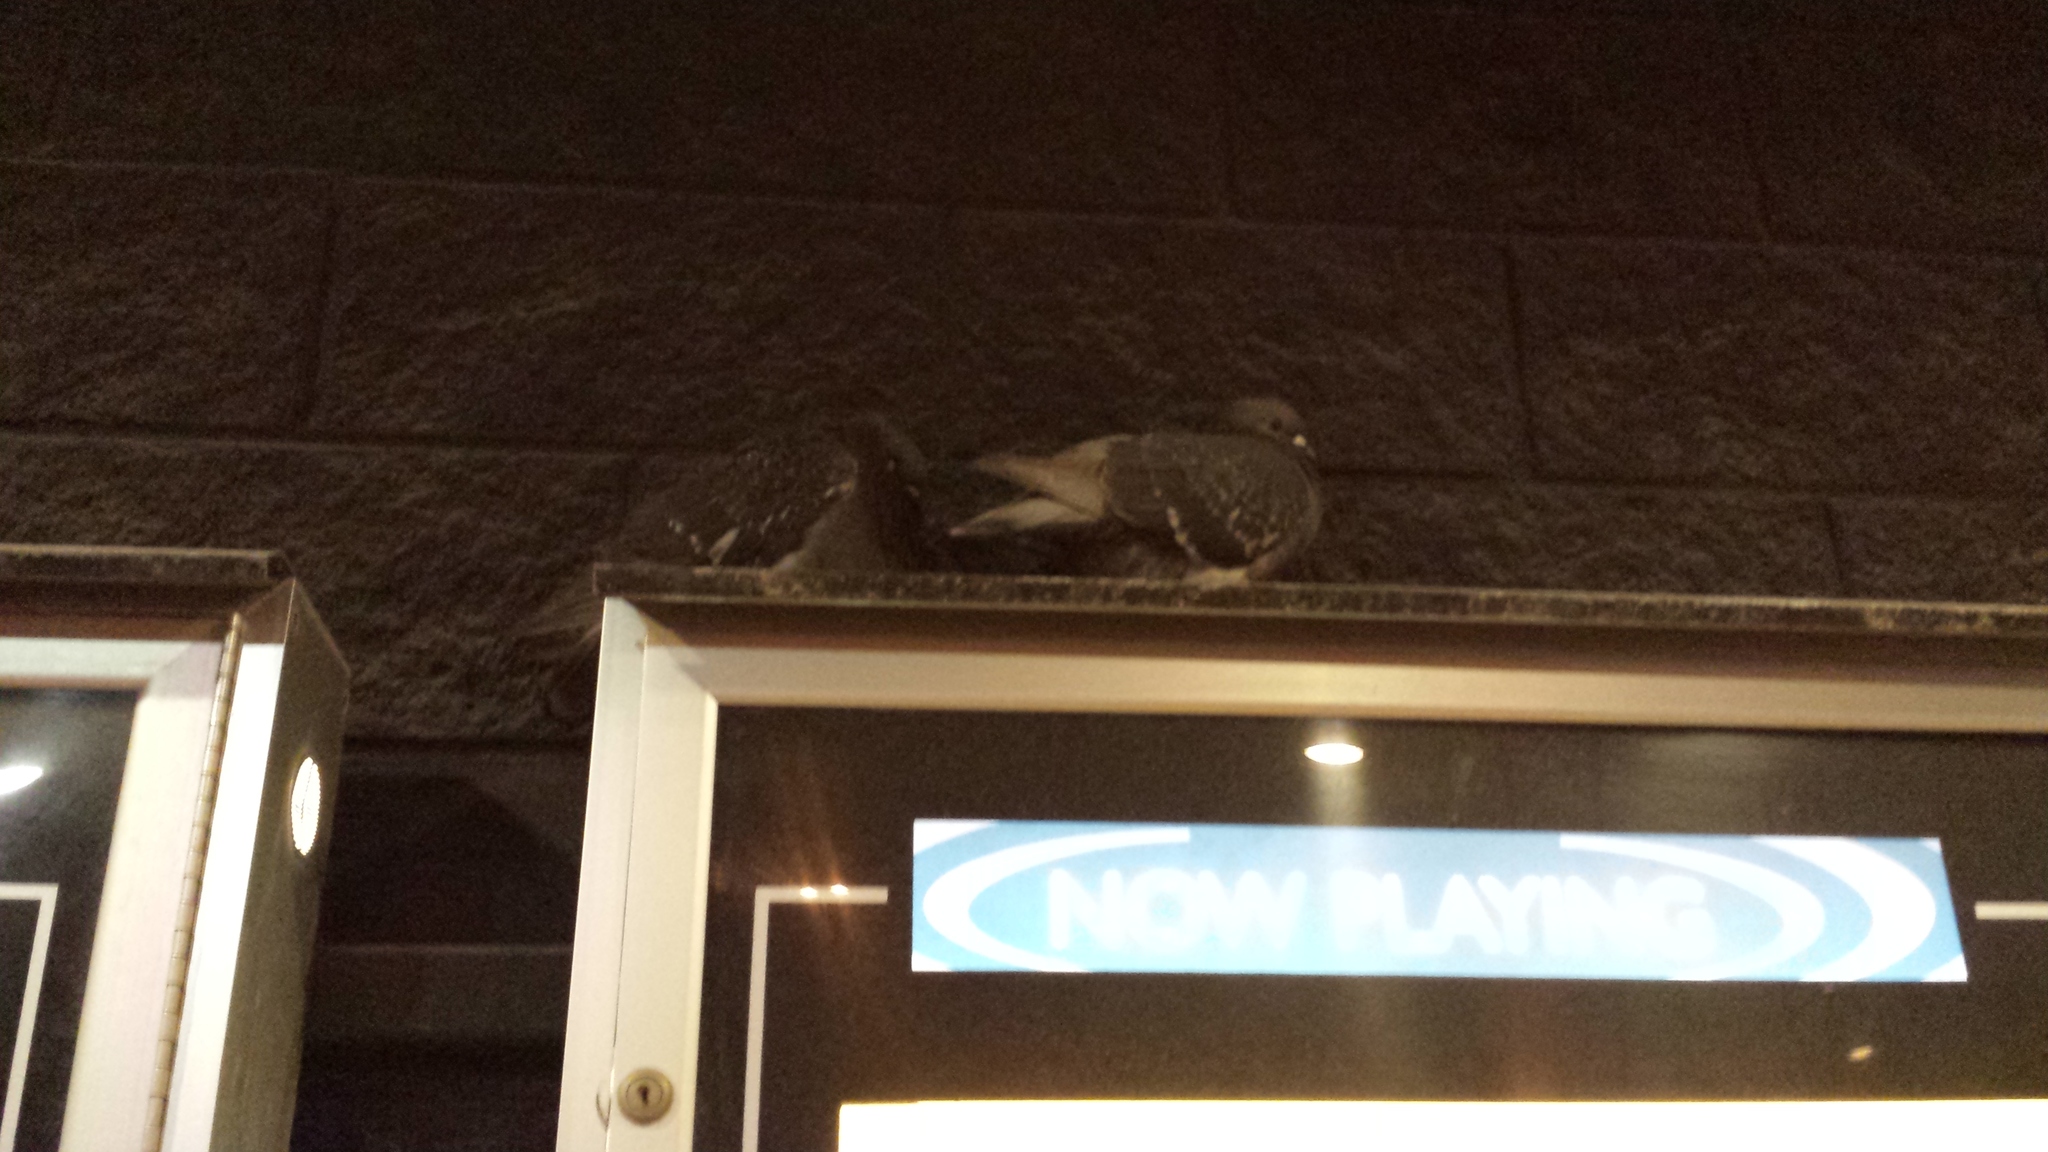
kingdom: Animalia
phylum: Chordata
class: Aves
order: Columbiformes
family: Columbidae
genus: Columba
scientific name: Columba livia
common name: Rock pigeon
